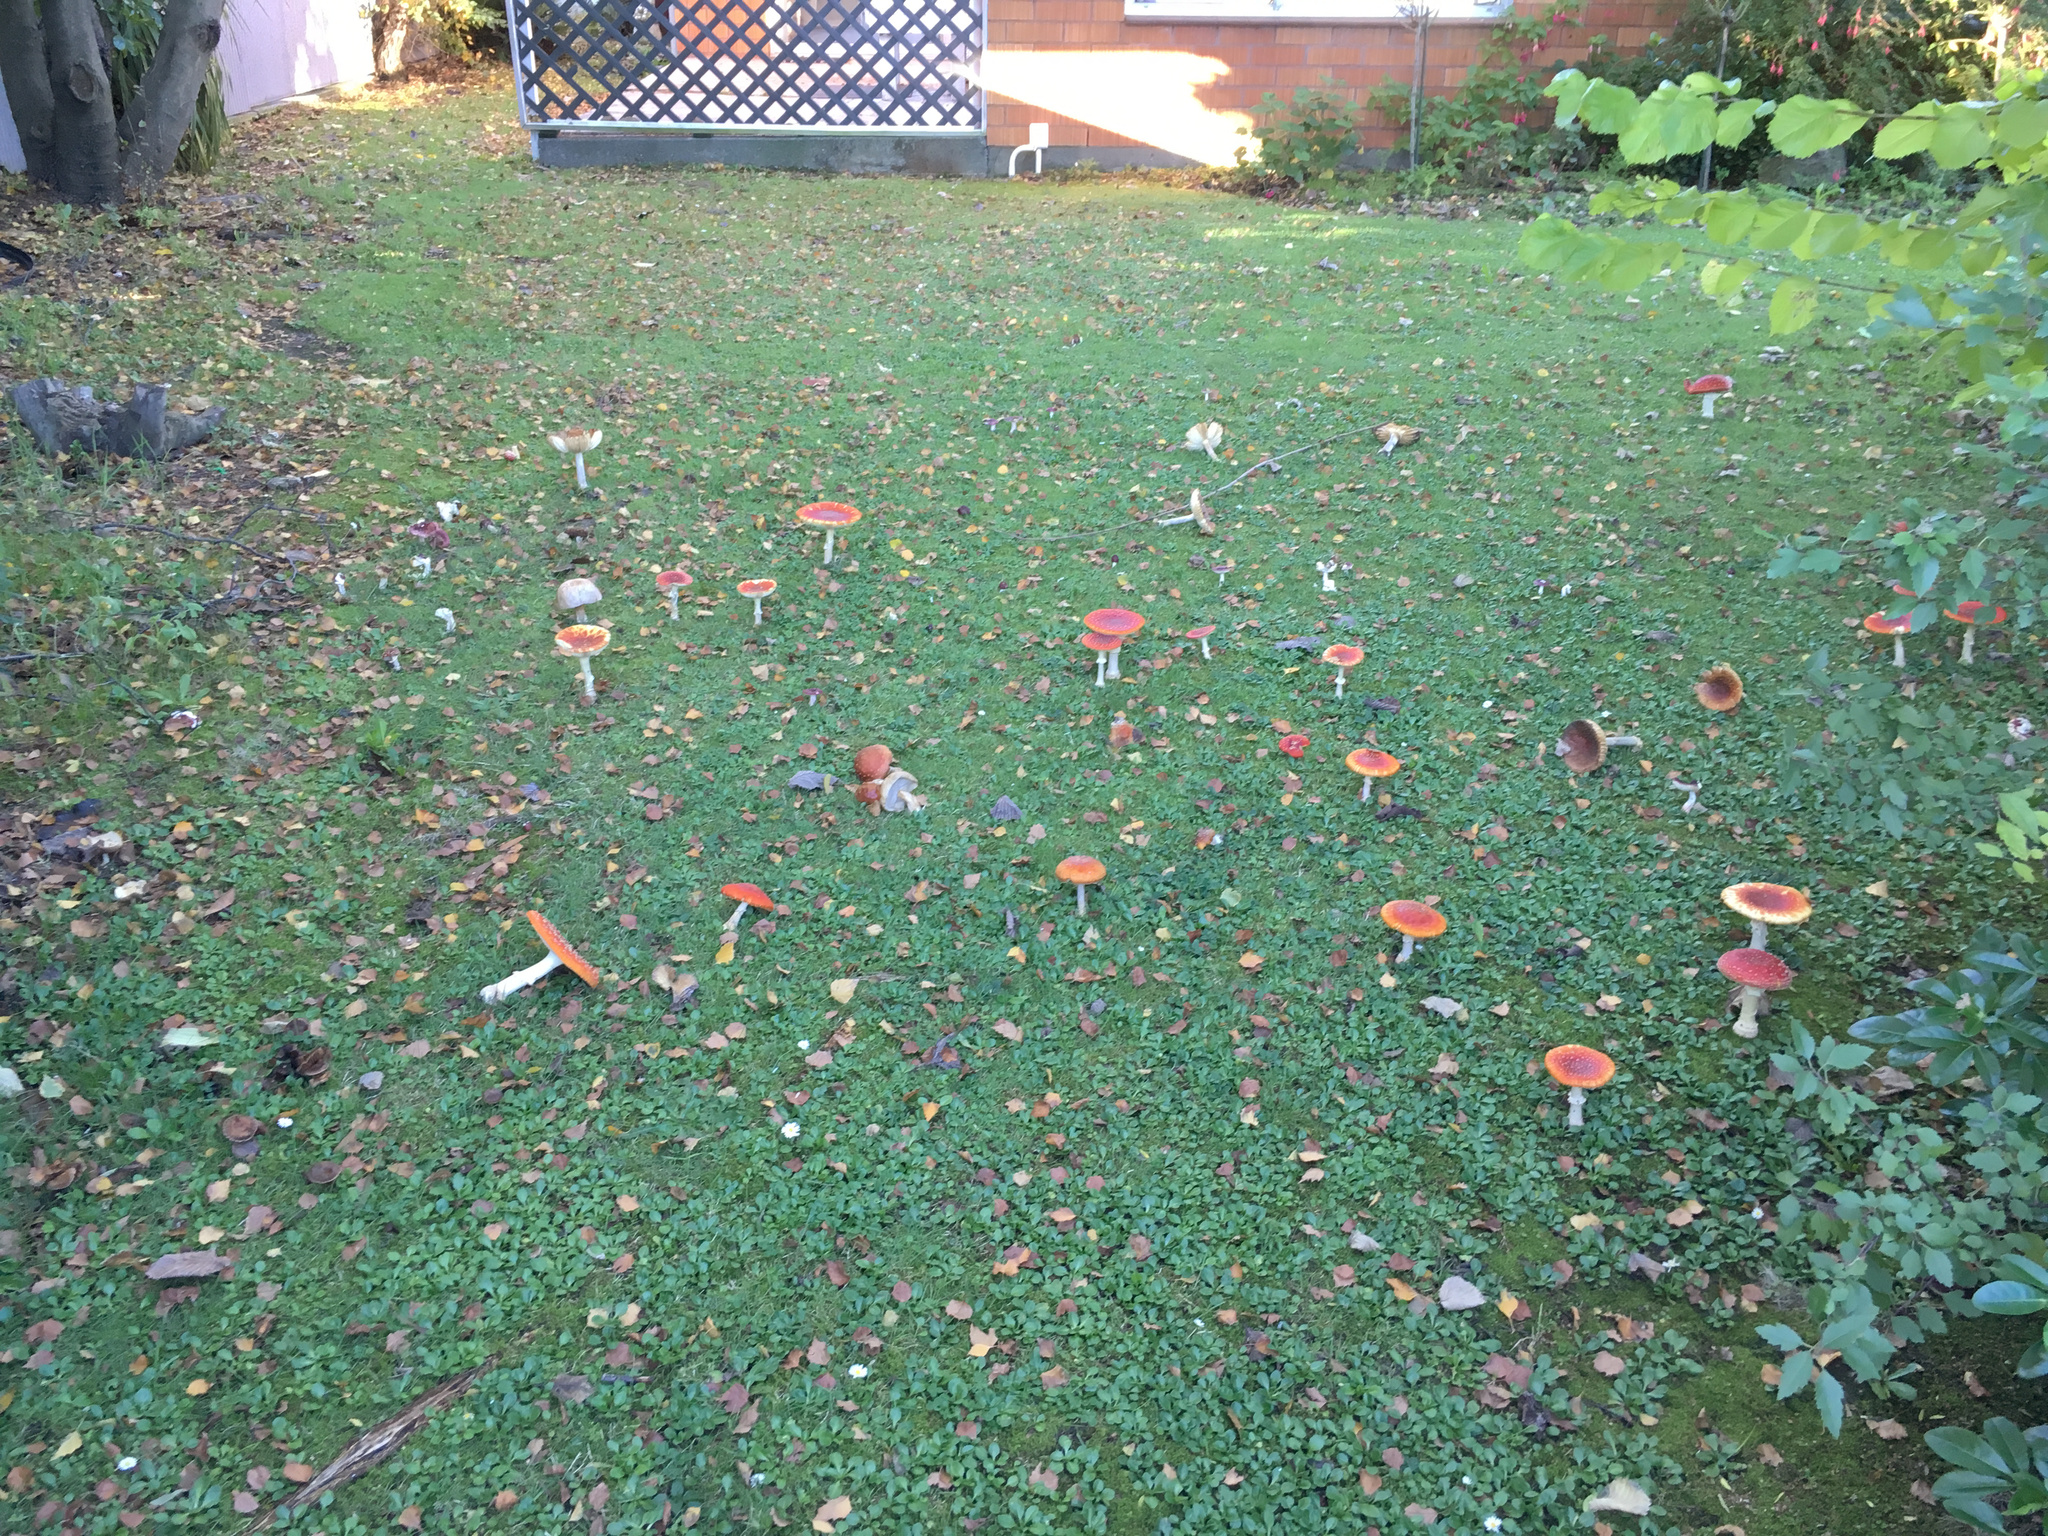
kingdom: Fungi
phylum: Basidiomycota
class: Agaricomycetes
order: Agaricales
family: Amanitaceae
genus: Amanita
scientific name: Amanita muscaria
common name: Fly agaric
